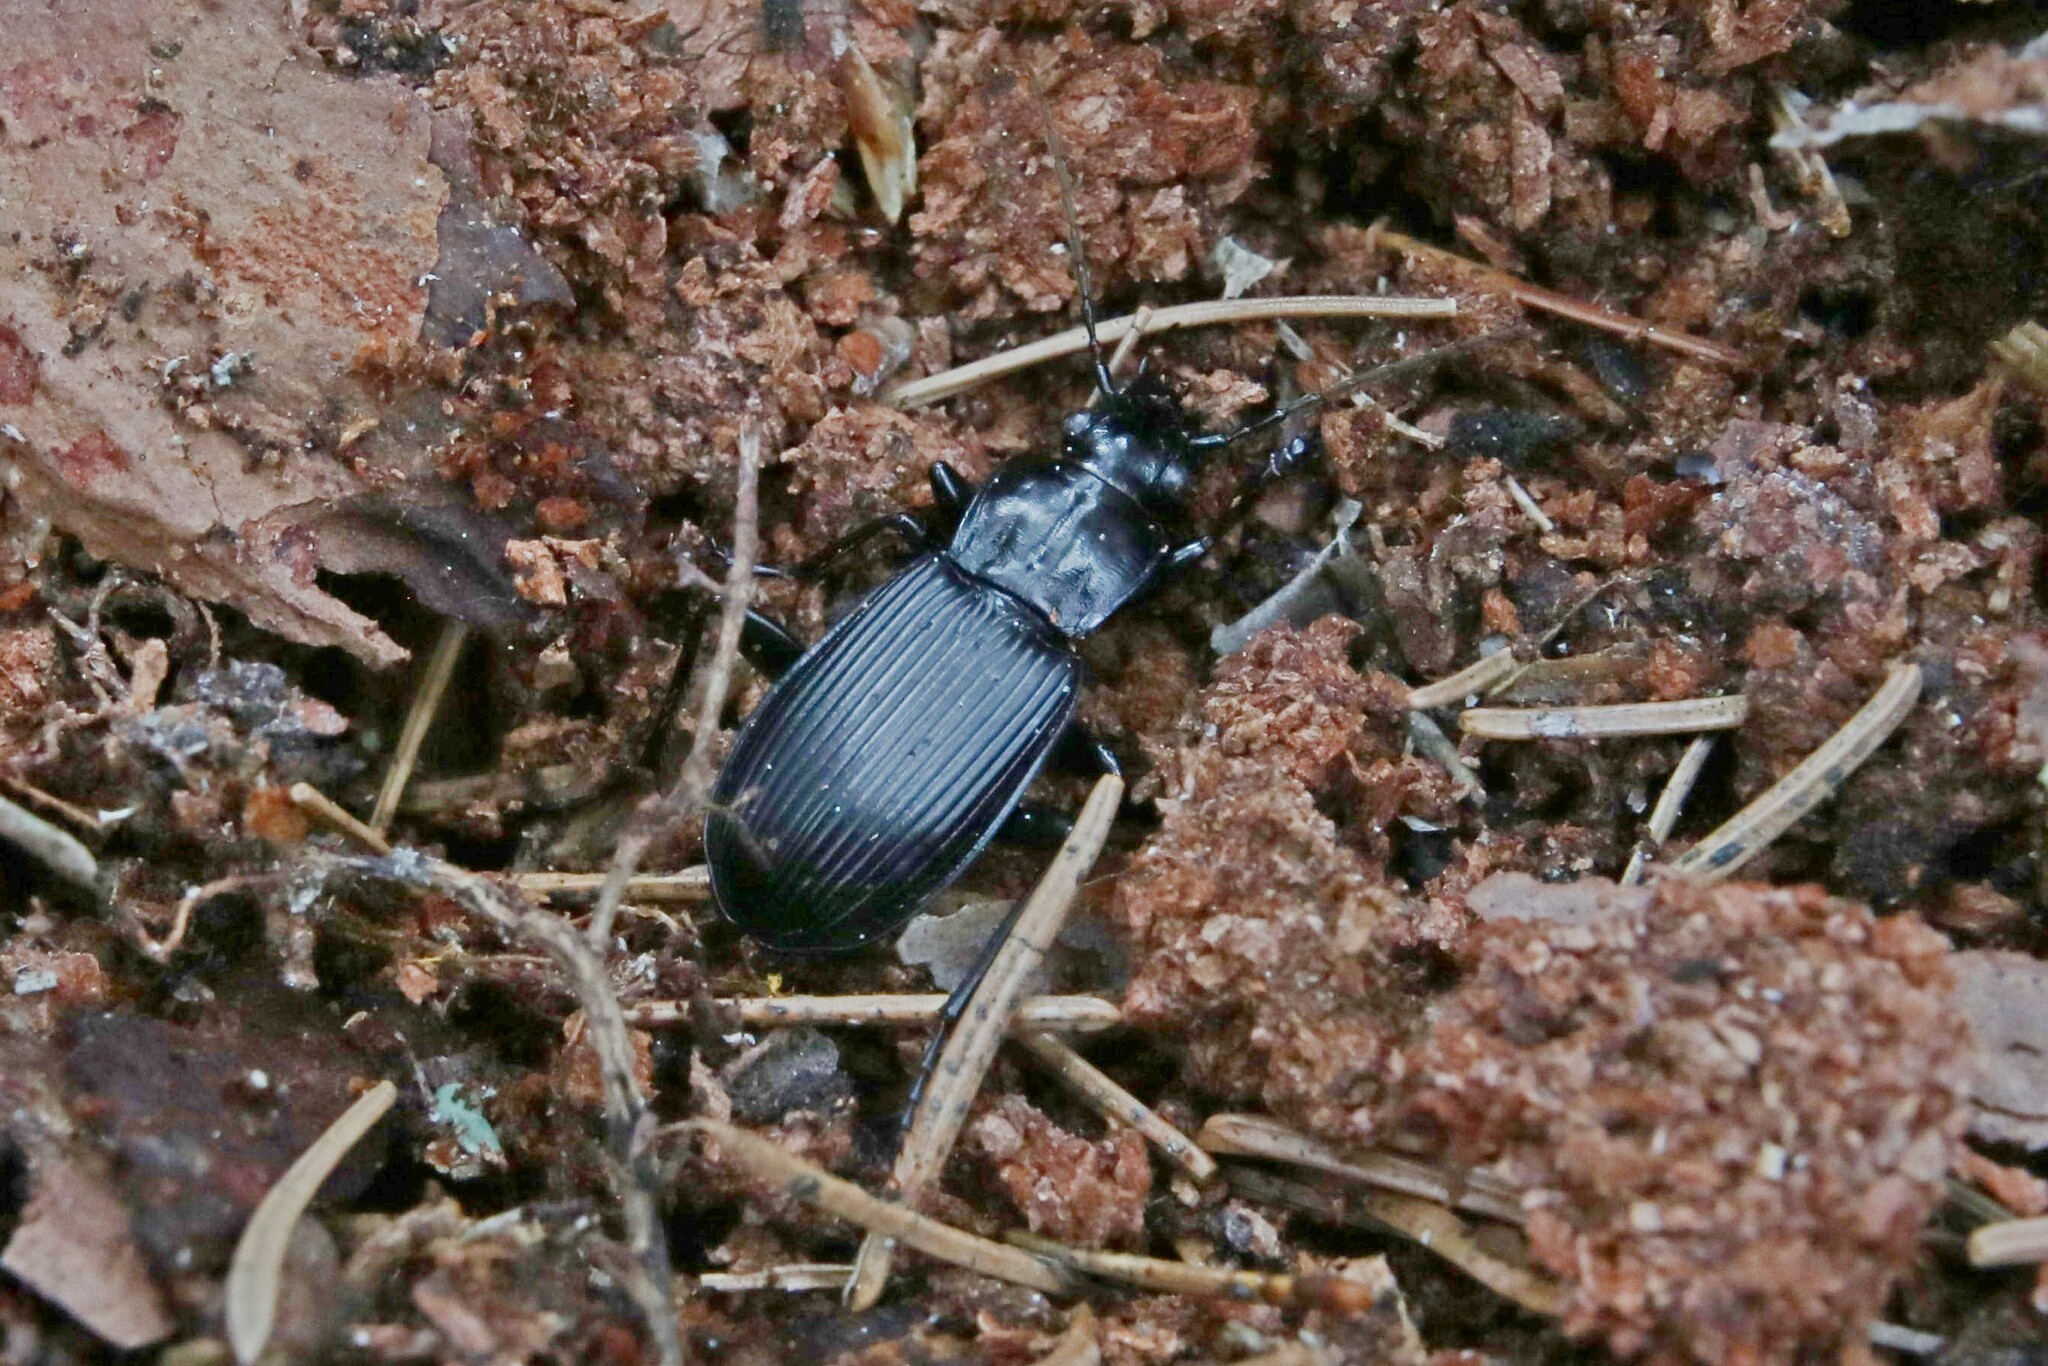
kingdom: Animalia
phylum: Arthropoda
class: Insecta
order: Coleoptera
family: Carabidae
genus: Pterostichus
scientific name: Pterostichus niger
